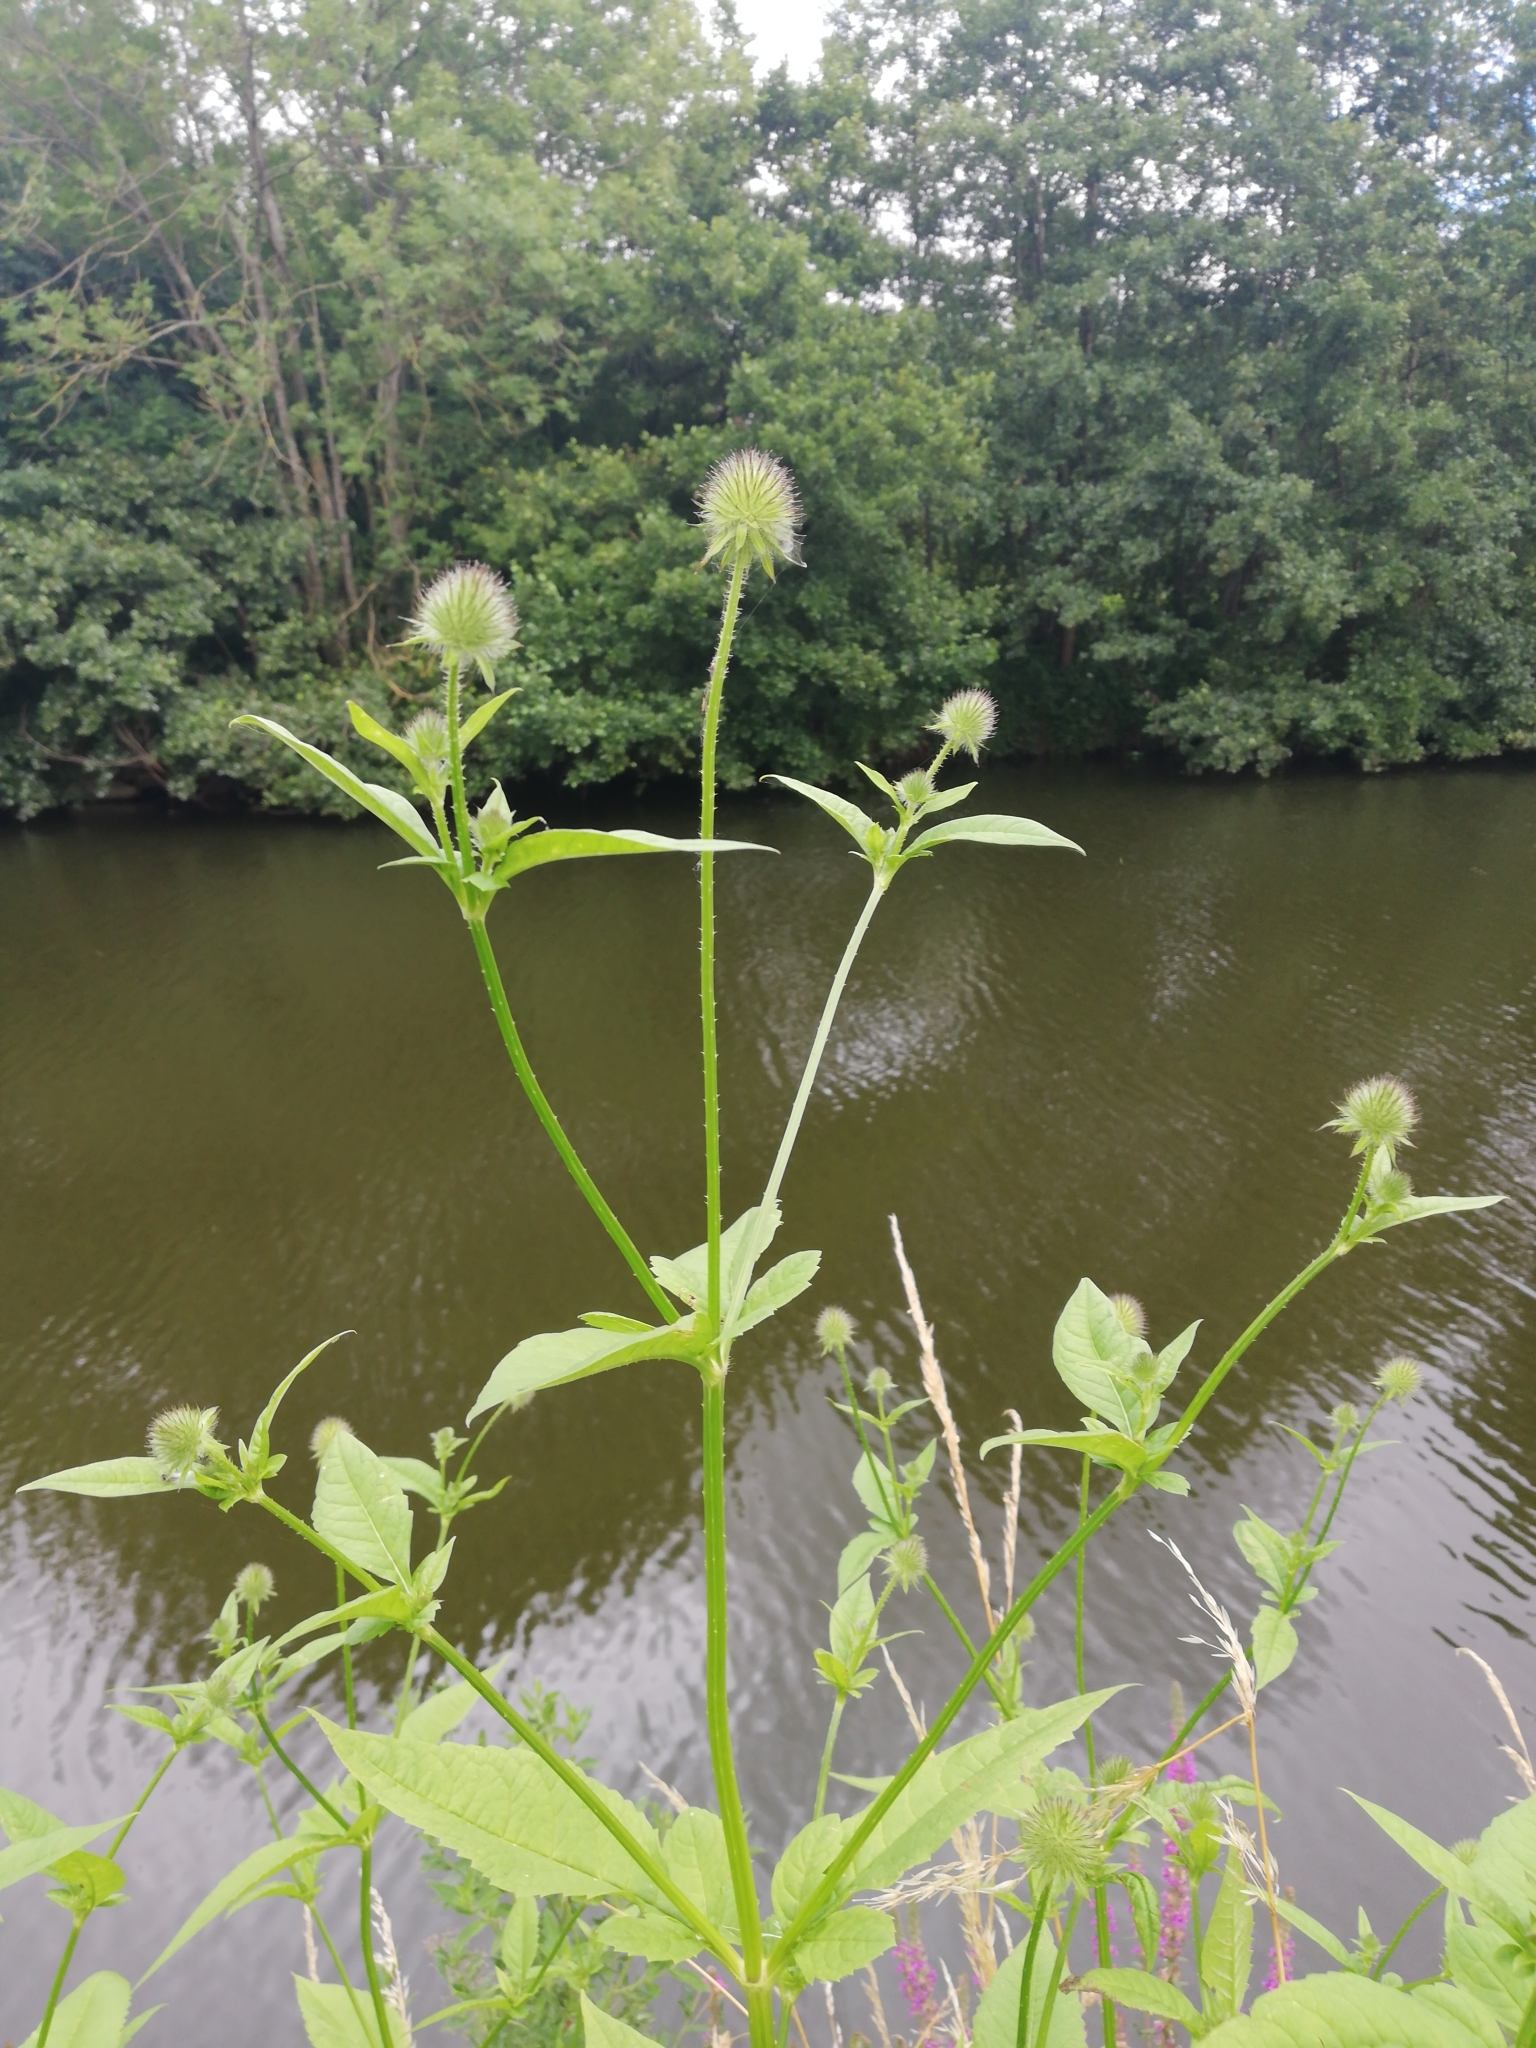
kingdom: Plantae
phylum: Tracheophyta
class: Magnoliopsida
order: Dipsacales
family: Caprifoliaceae
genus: Dipsacus
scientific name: Dipsacus pilosus
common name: Small teasel
